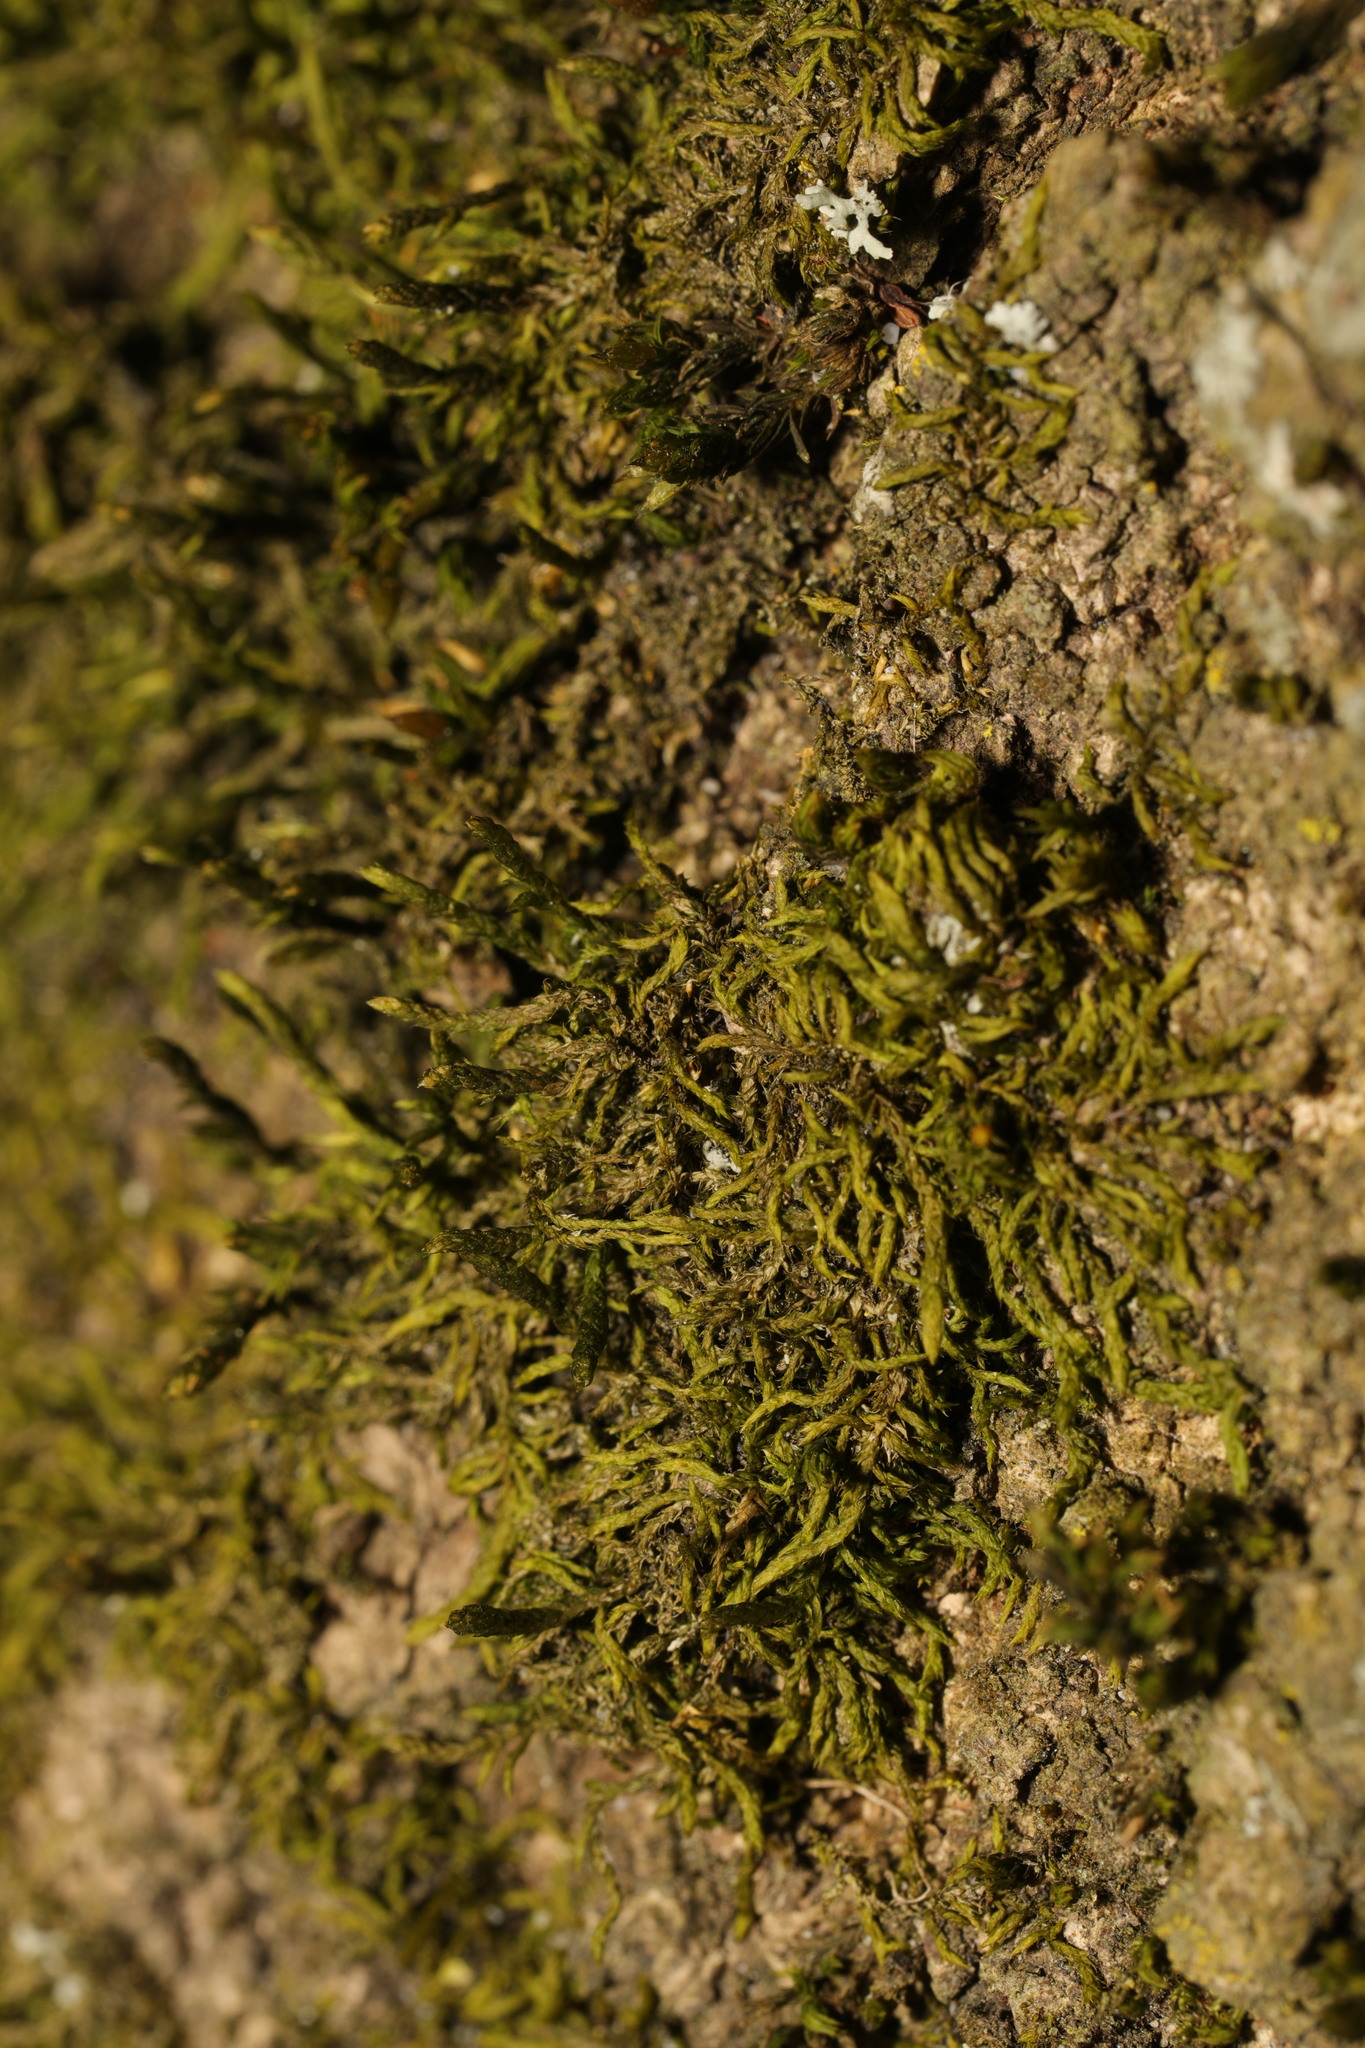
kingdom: Plantae
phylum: Bryophyta
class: Bryopsida
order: Hypnales
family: Cryphaeaceae
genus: Cryphaea
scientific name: Cryphaea heteromalla
